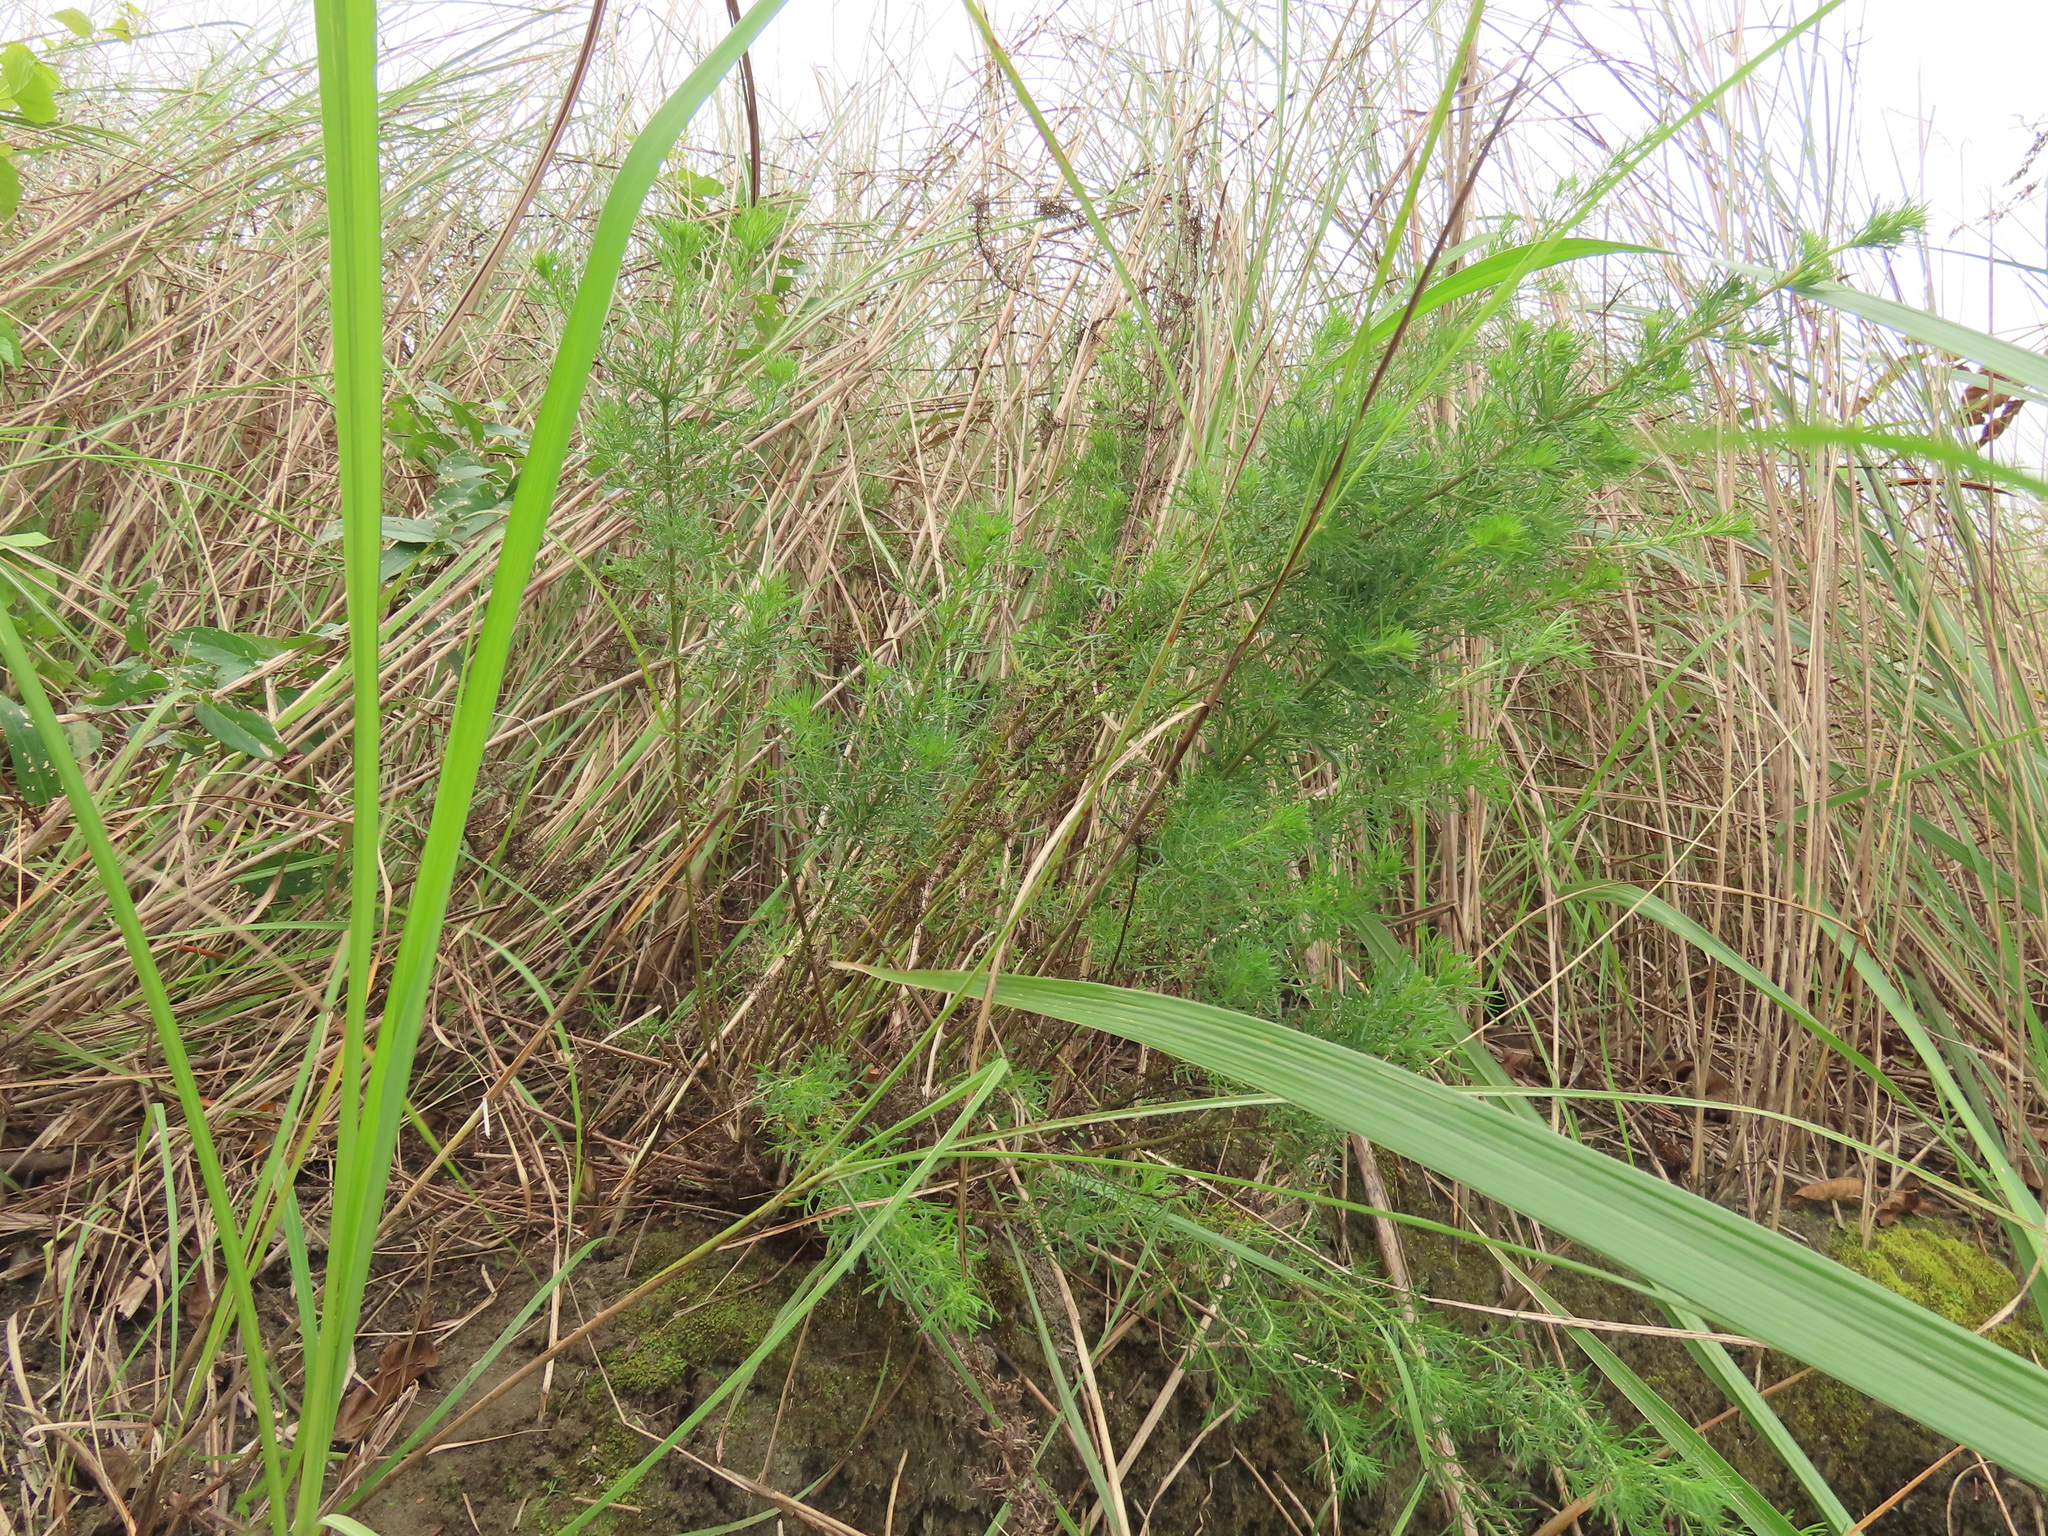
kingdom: Plantae
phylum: Tracheophyta
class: Magnoliopsida
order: Asterales
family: Asteraceae
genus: Artemisia
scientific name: Artemisia capillaris
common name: Yin-chen wormwood
